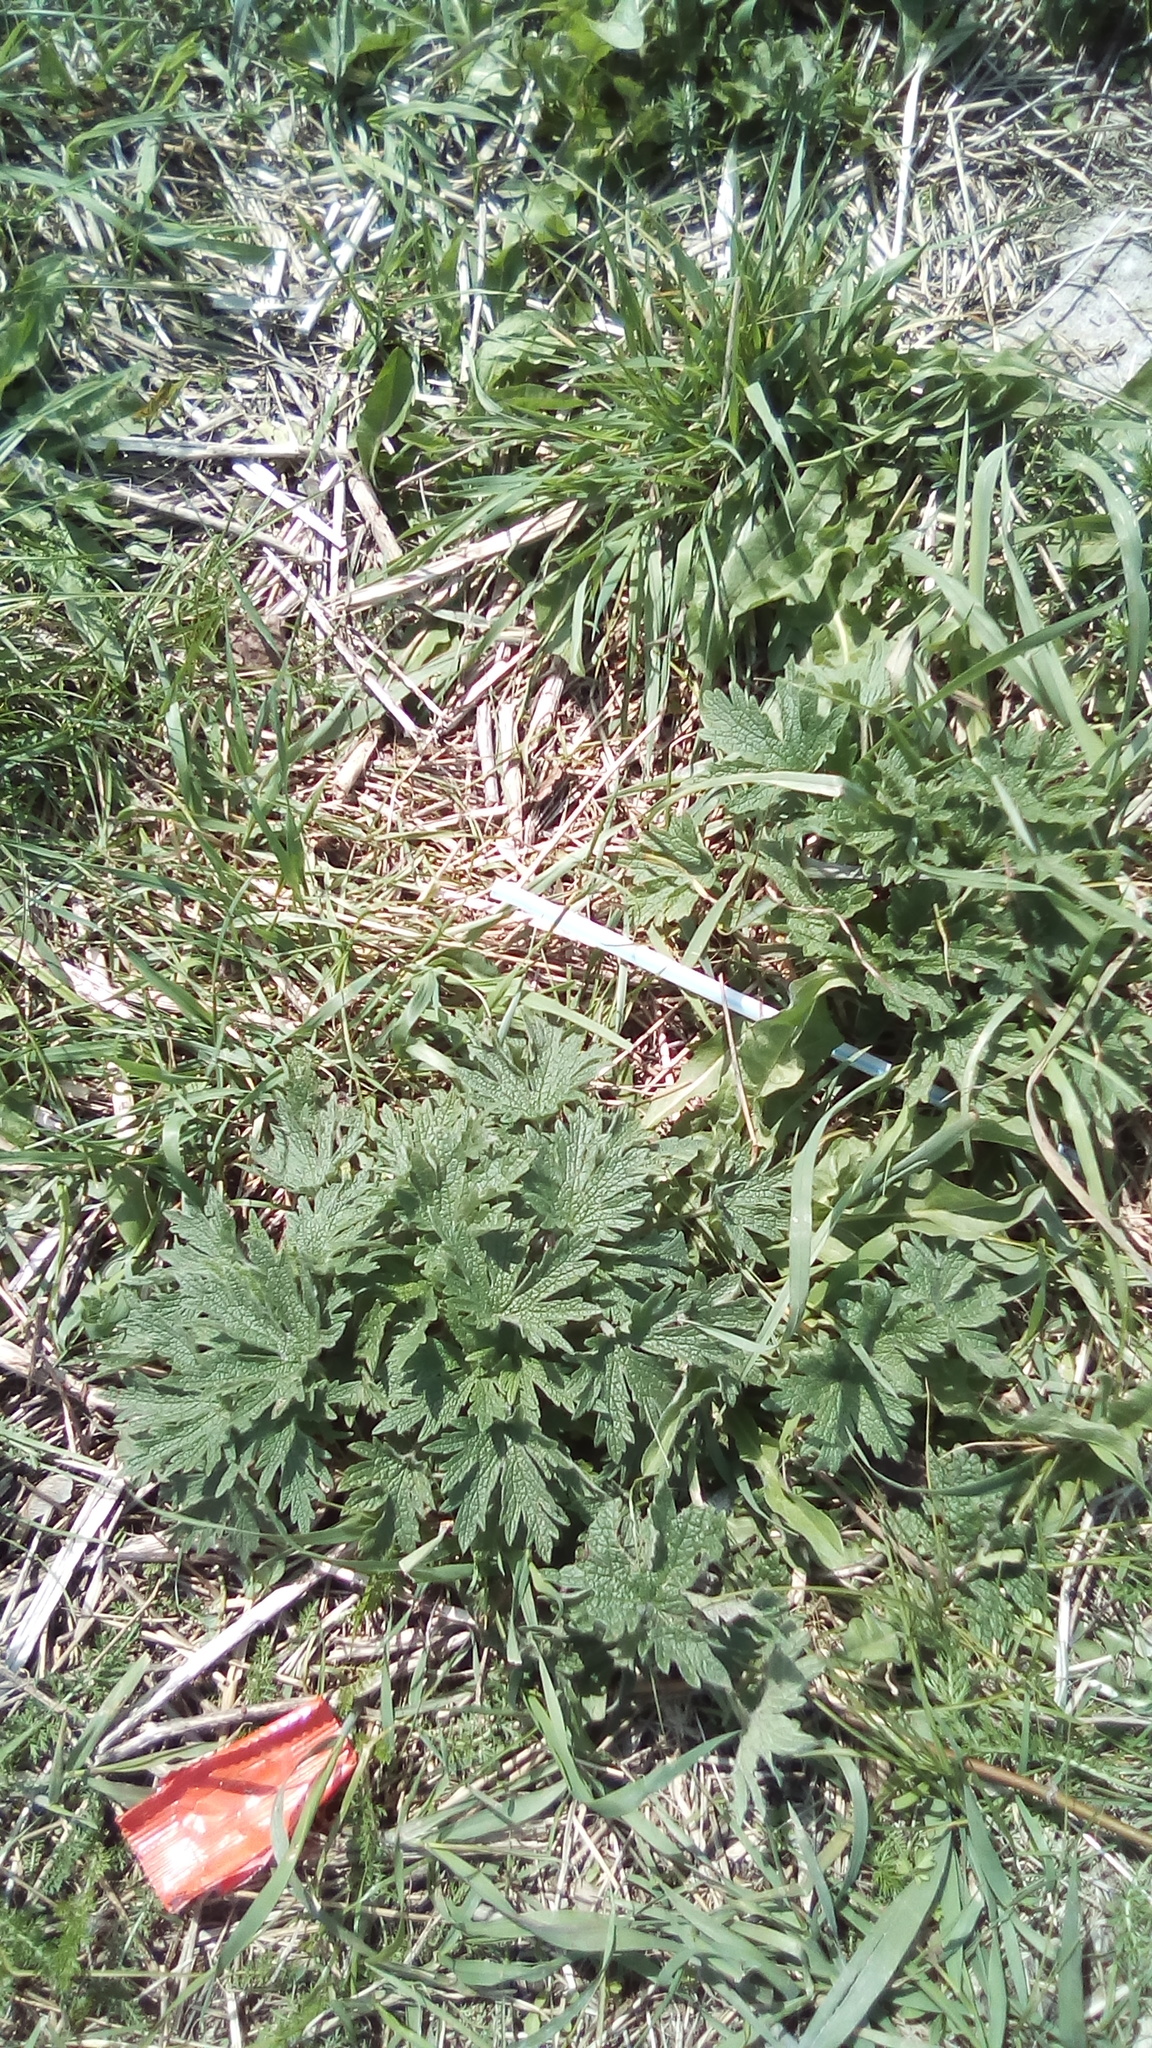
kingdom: Plantae
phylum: Tracheophyta
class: Magnoliopsida
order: Lamiales
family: Lamiaceae
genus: Leonurus
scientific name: Leonurus quinquelobatus
